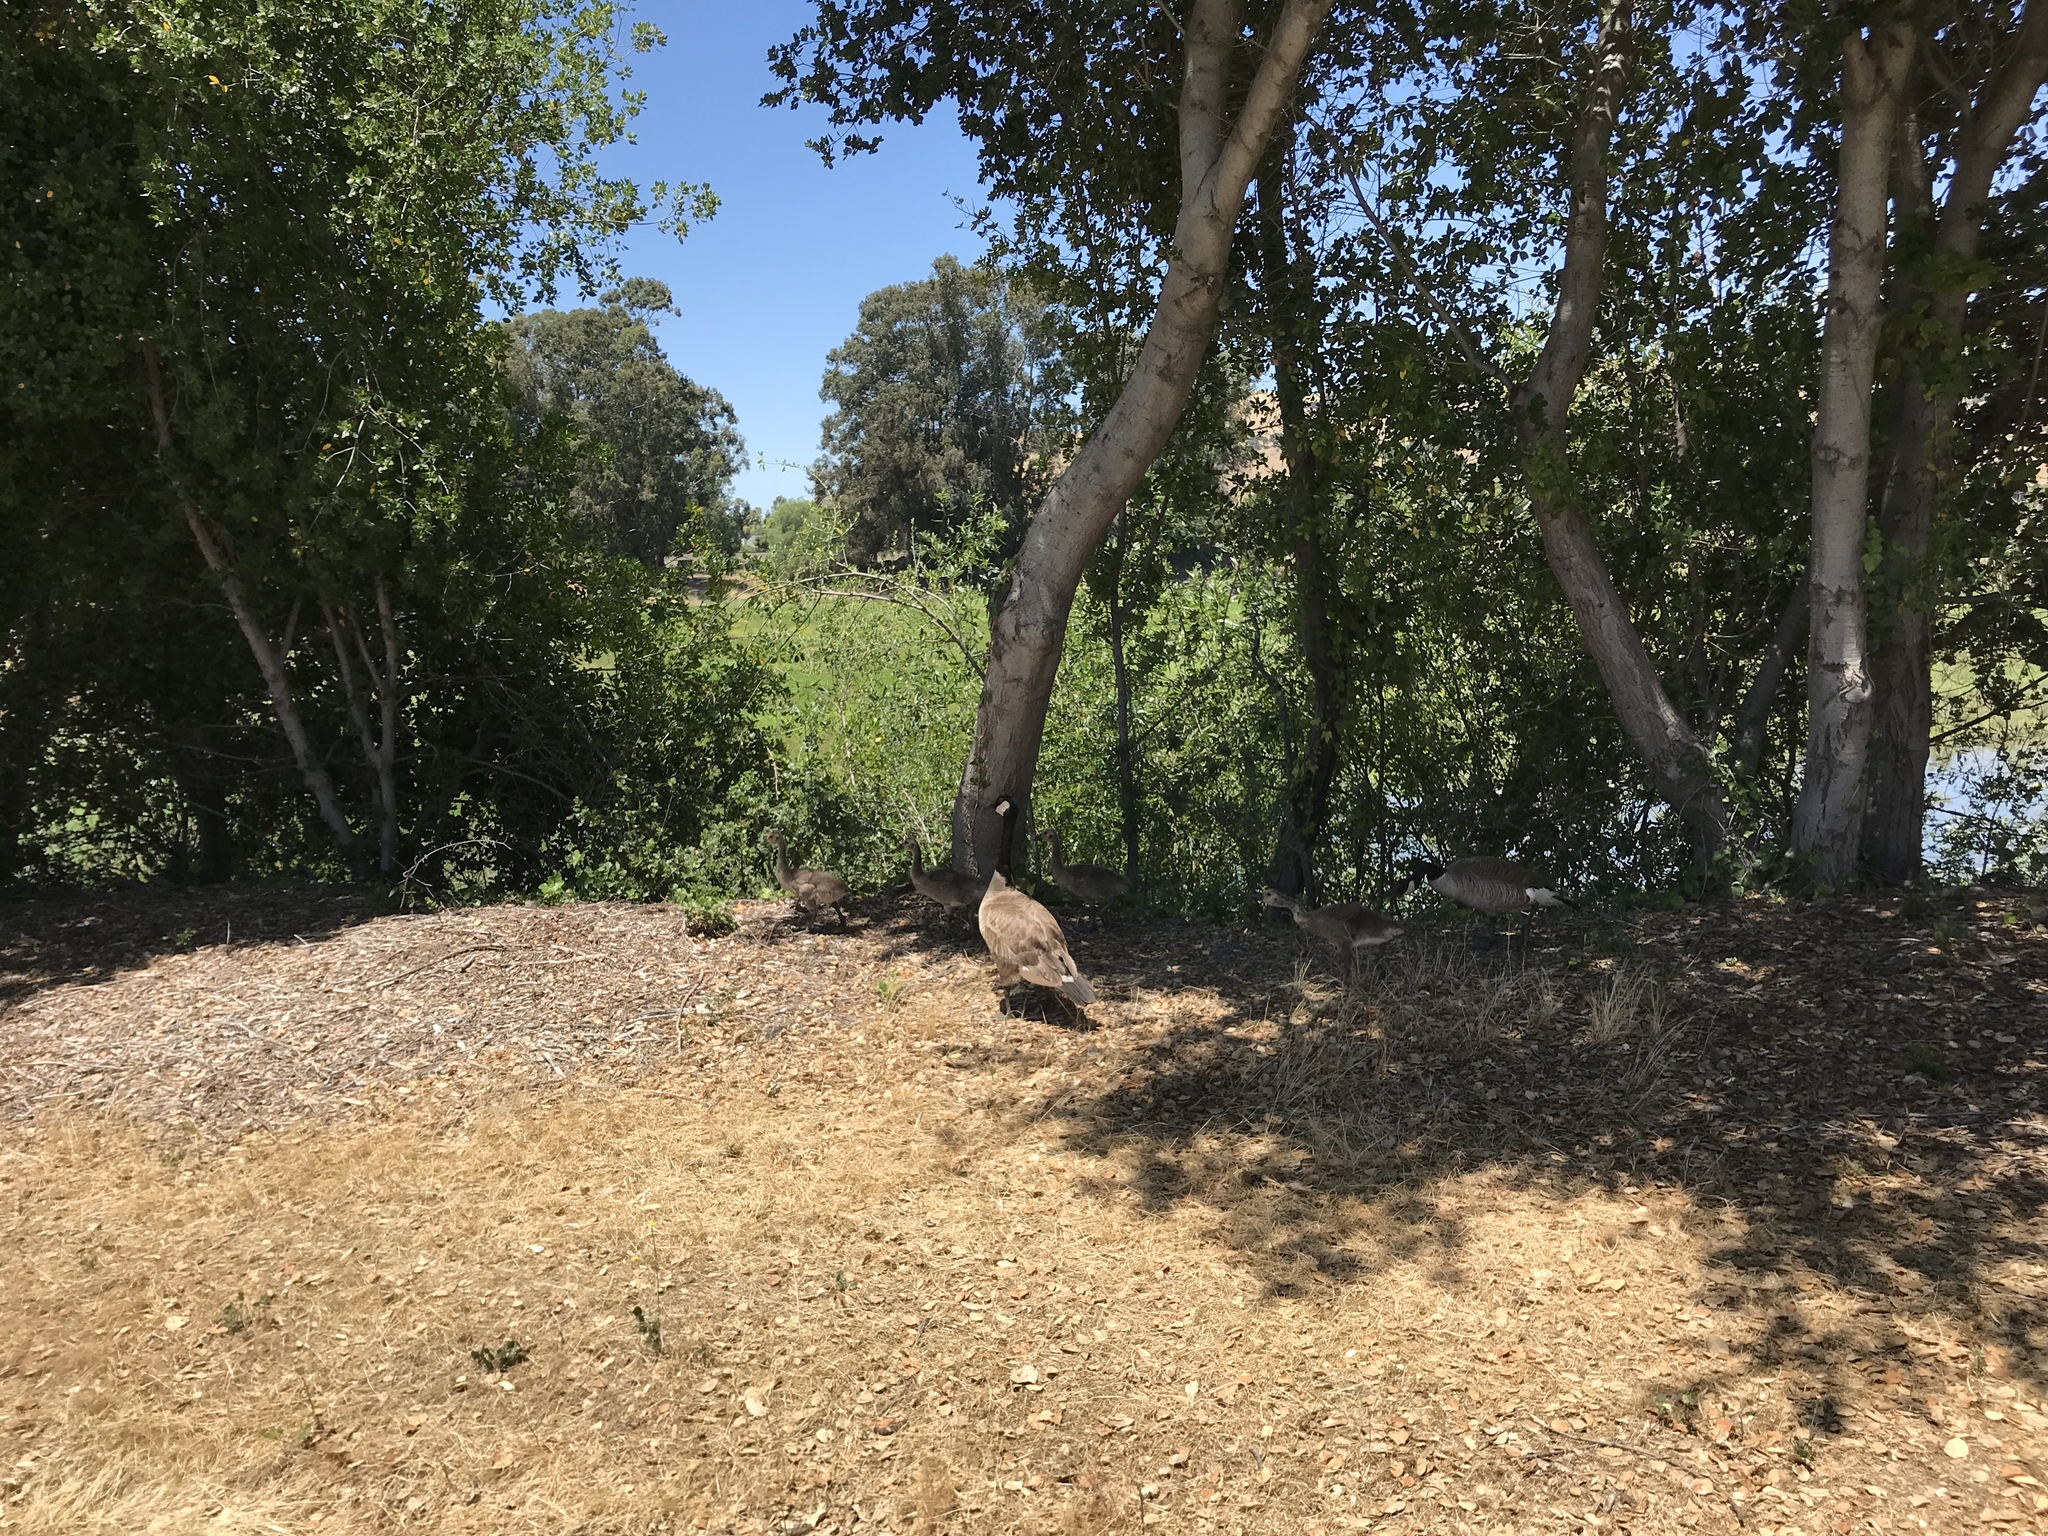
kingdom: Animalia
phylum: Chordata
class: Aves
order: Anseriformes
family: Anatidae
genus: Branta
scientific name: Branta canadensis
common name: Canada goose
